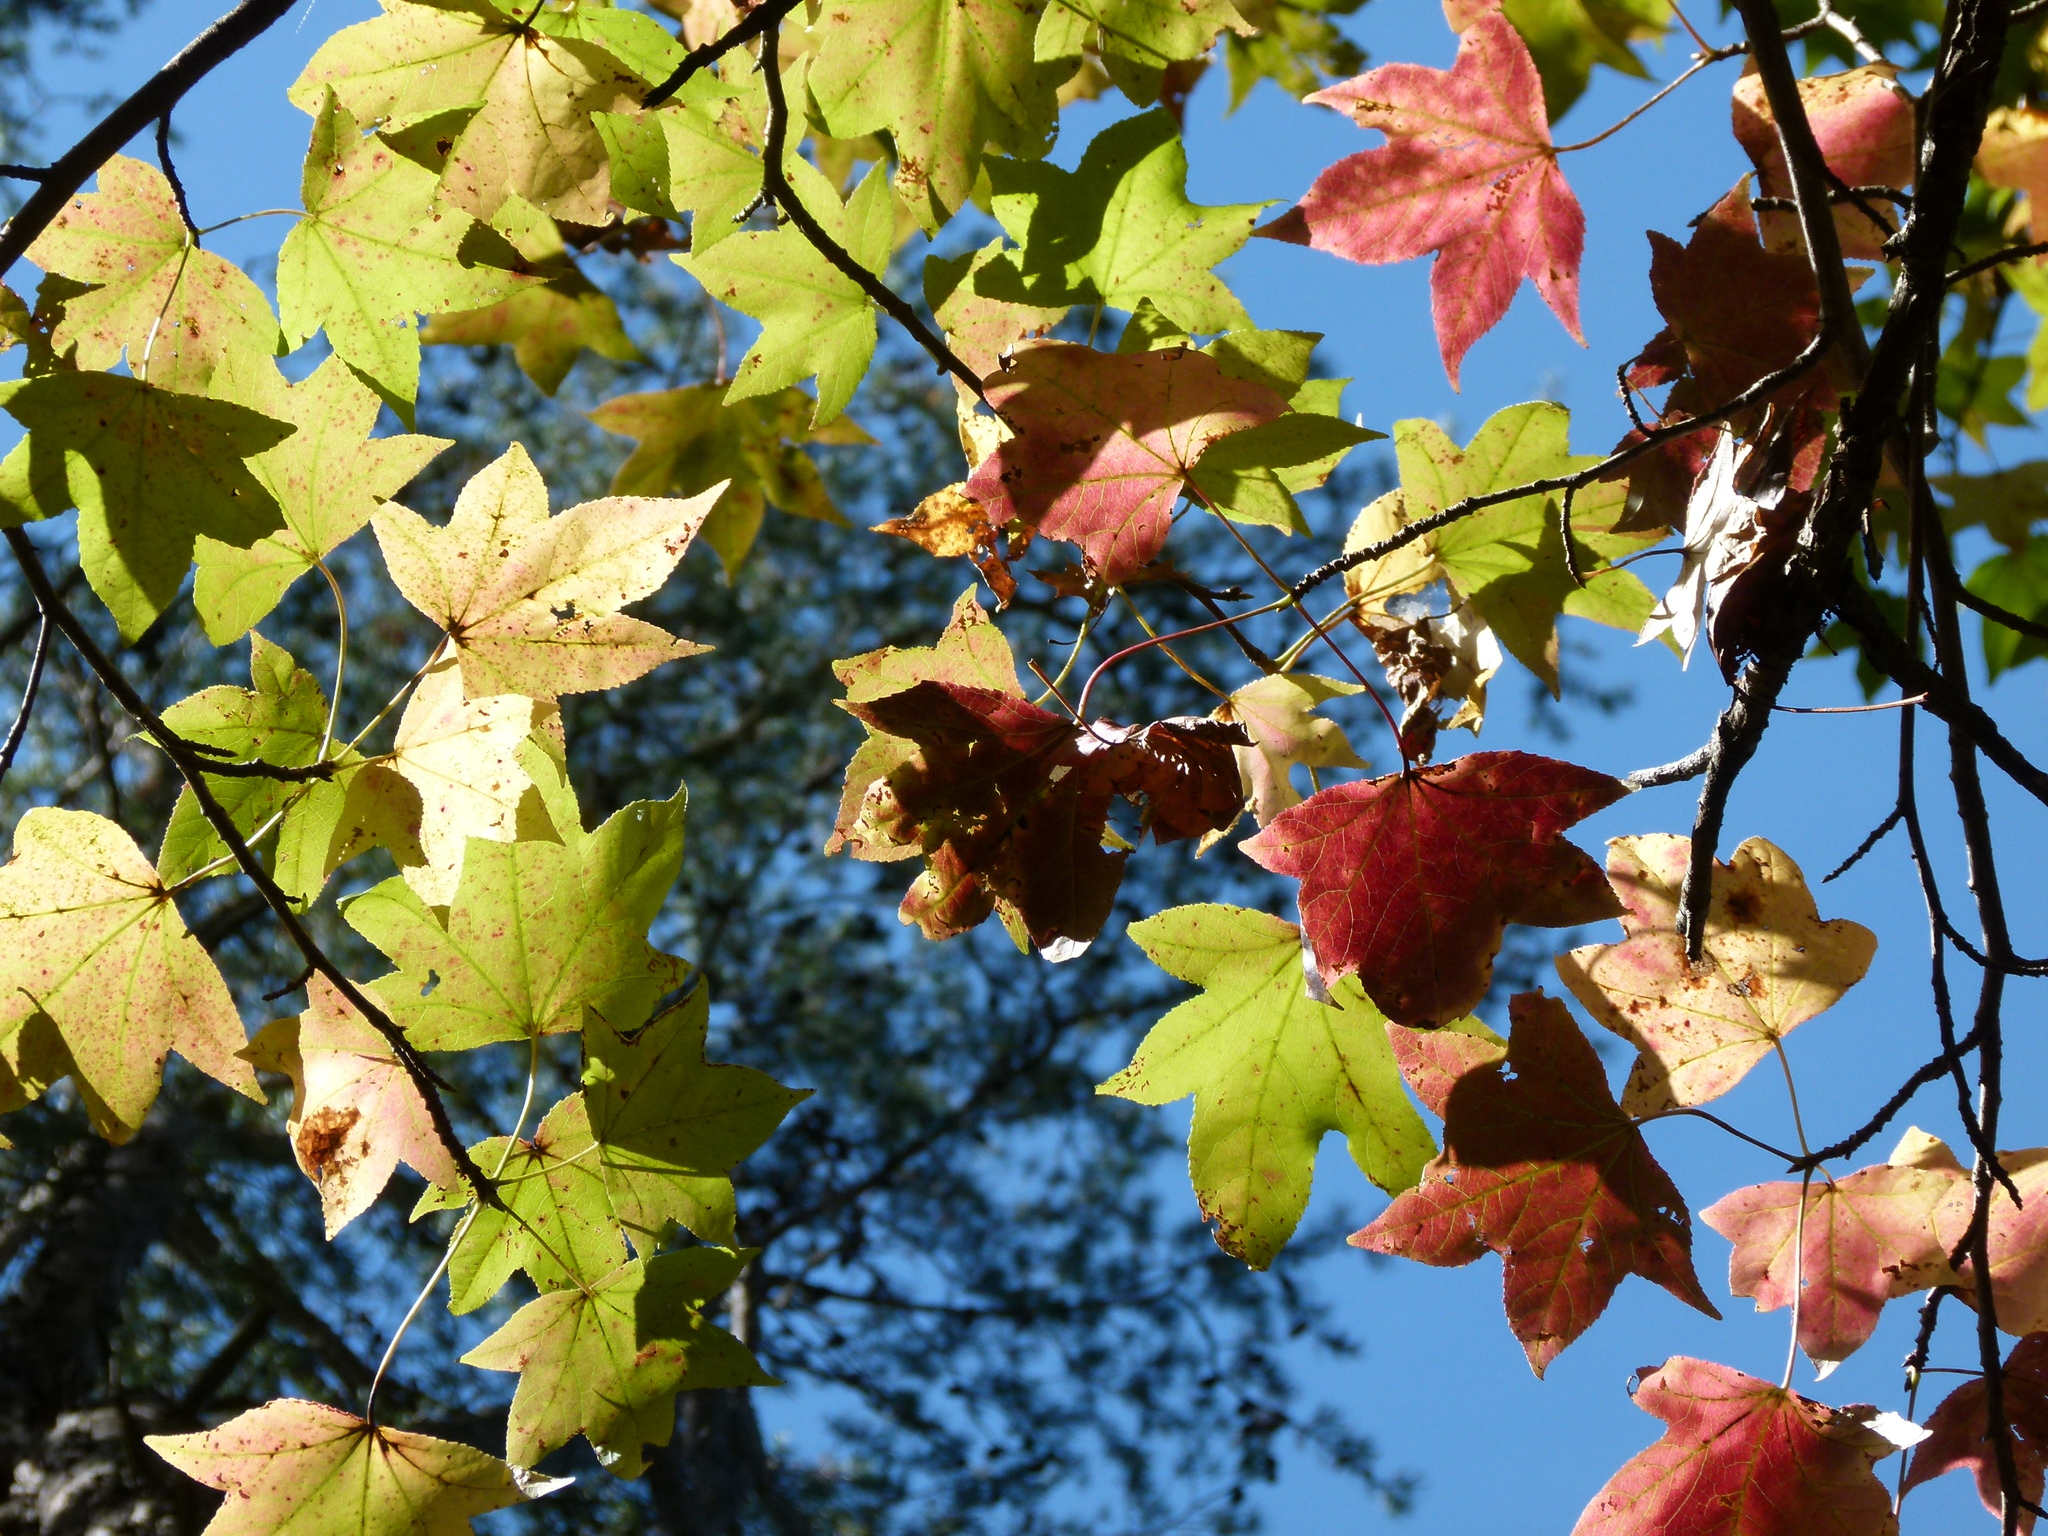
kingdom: Plantae
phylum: Tracheophyta
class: Magnoliopsida
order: Saxifragales
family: Altingiaceae
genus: Liquidambar
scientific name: Liquidambar styraciflua
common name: Sweet gum
